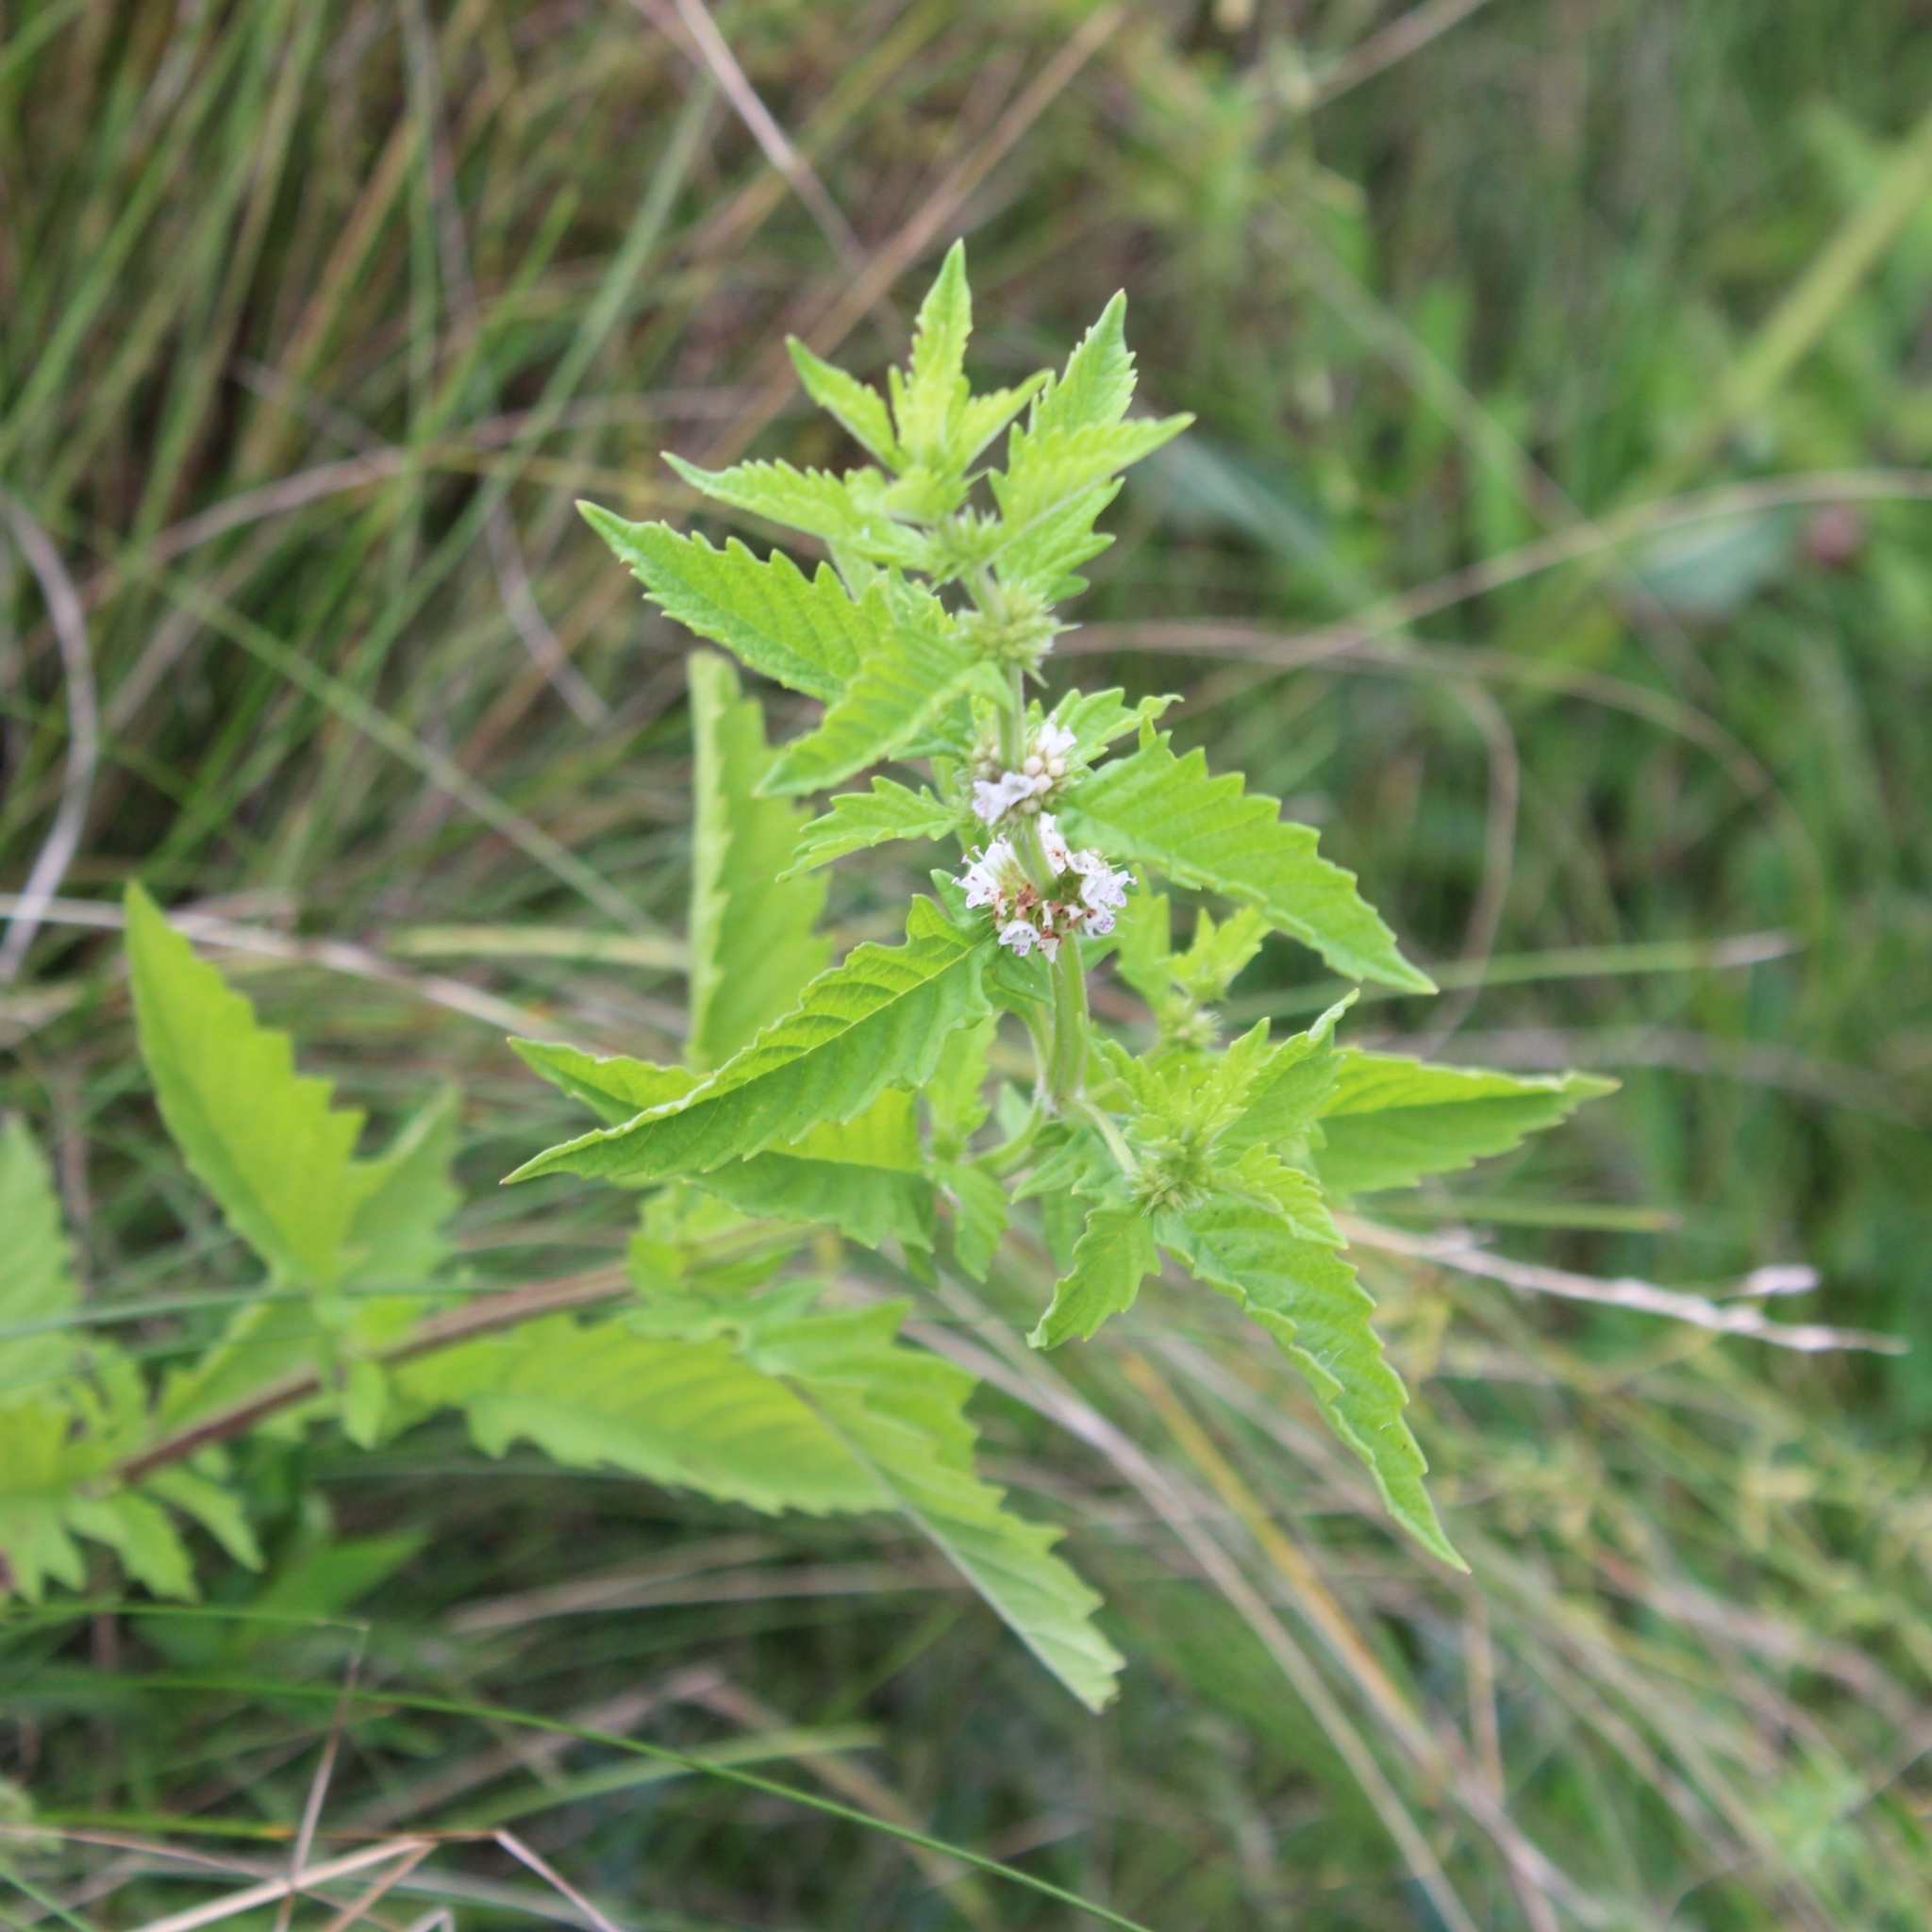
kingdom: Plantae
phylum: Tracheophyta
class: Magnoliopsida
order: Lamiales
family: Lamiaceae
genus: Lycopus
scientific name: Lycopus europaeus
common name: European bugleweed
